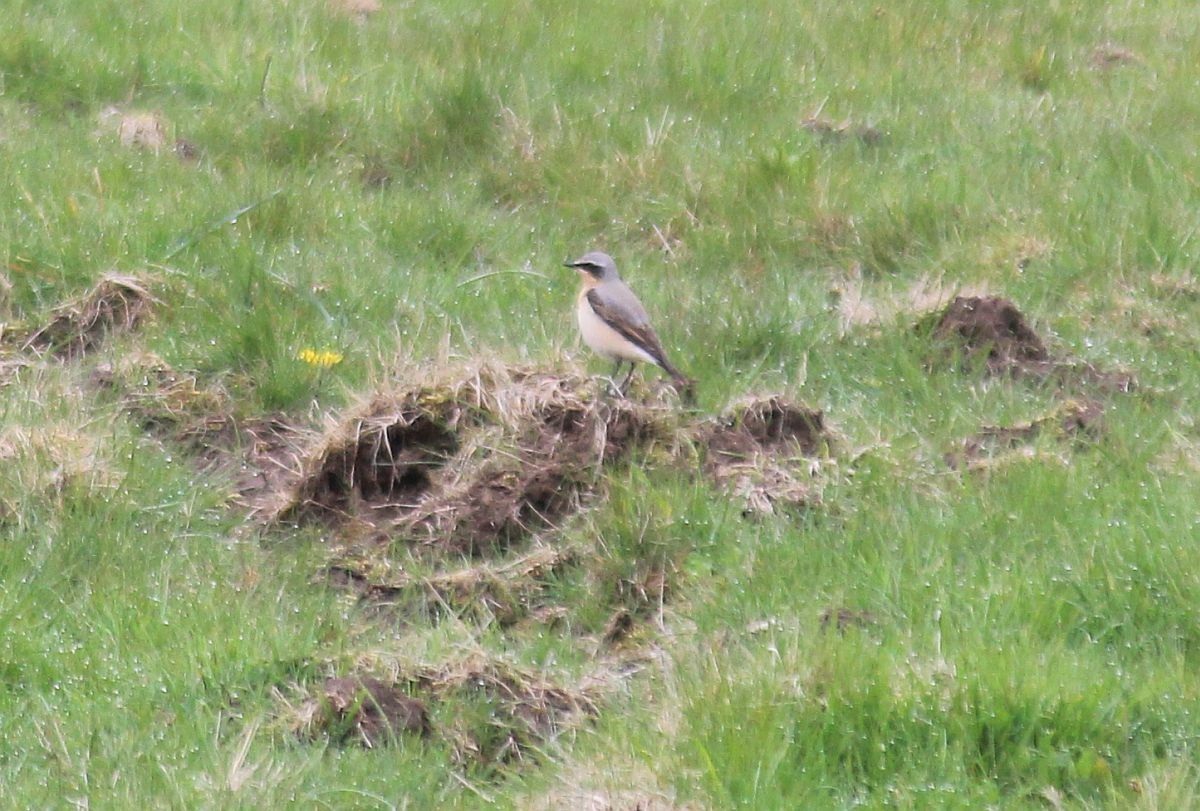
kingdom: Animalia
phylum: Chordata
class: Aves
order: Passeriformes
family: Muscicapidae
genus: Oenanthe
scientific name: Oenanthe oenanthe
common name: Northern wheatear
